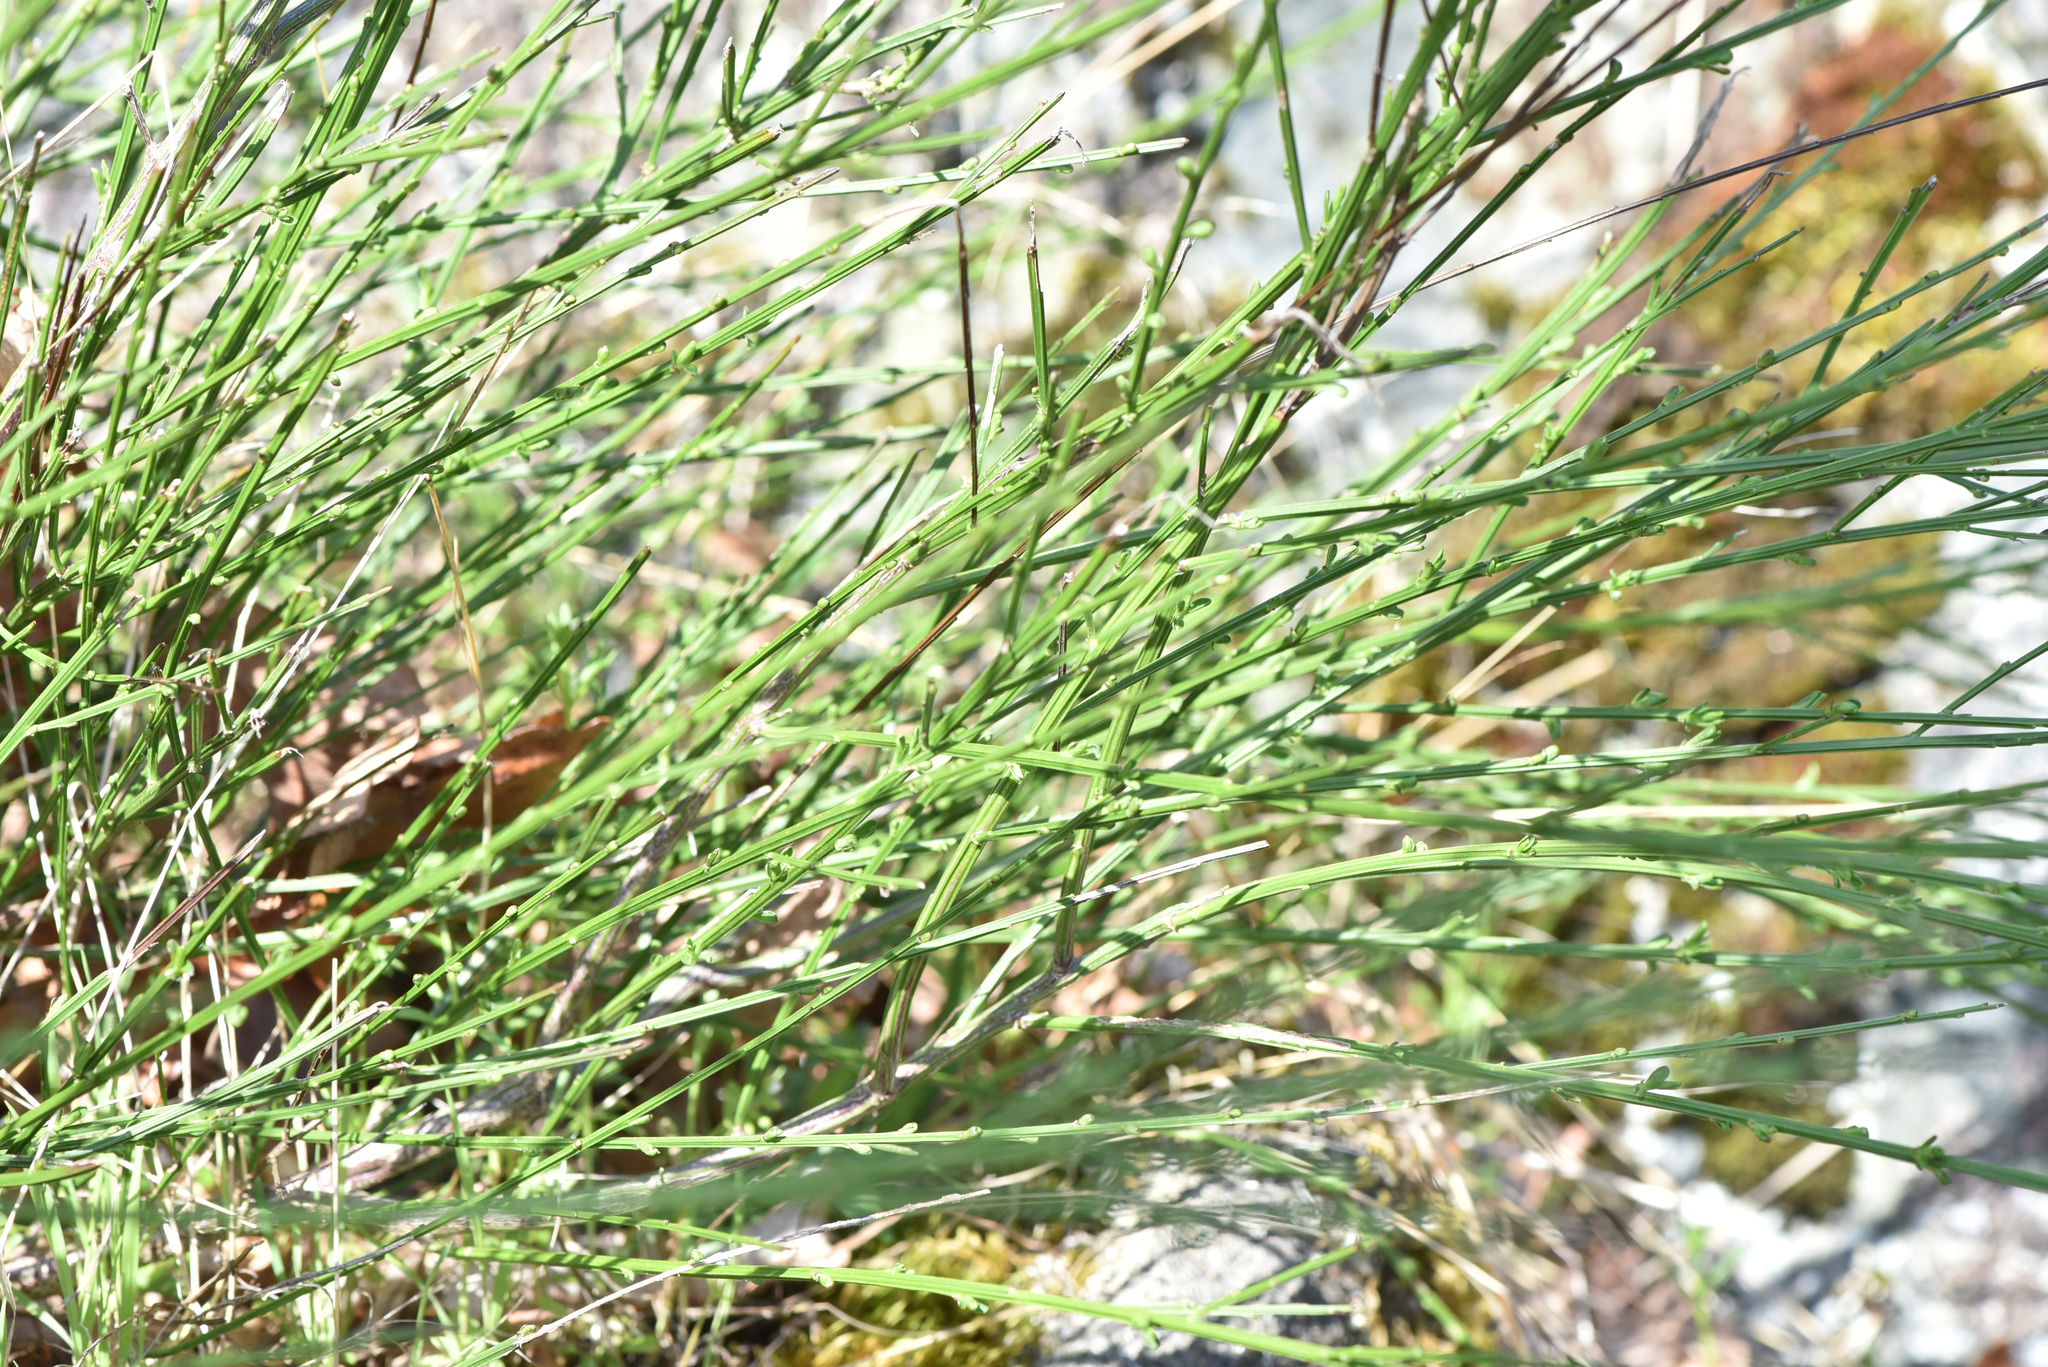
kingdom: Plantae
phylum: Tracheophyta
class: Magnoliopsida
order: Fabales
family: Fabaceae
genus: Cytisus
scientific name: Cytisus scoparius
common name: Scotch broom
